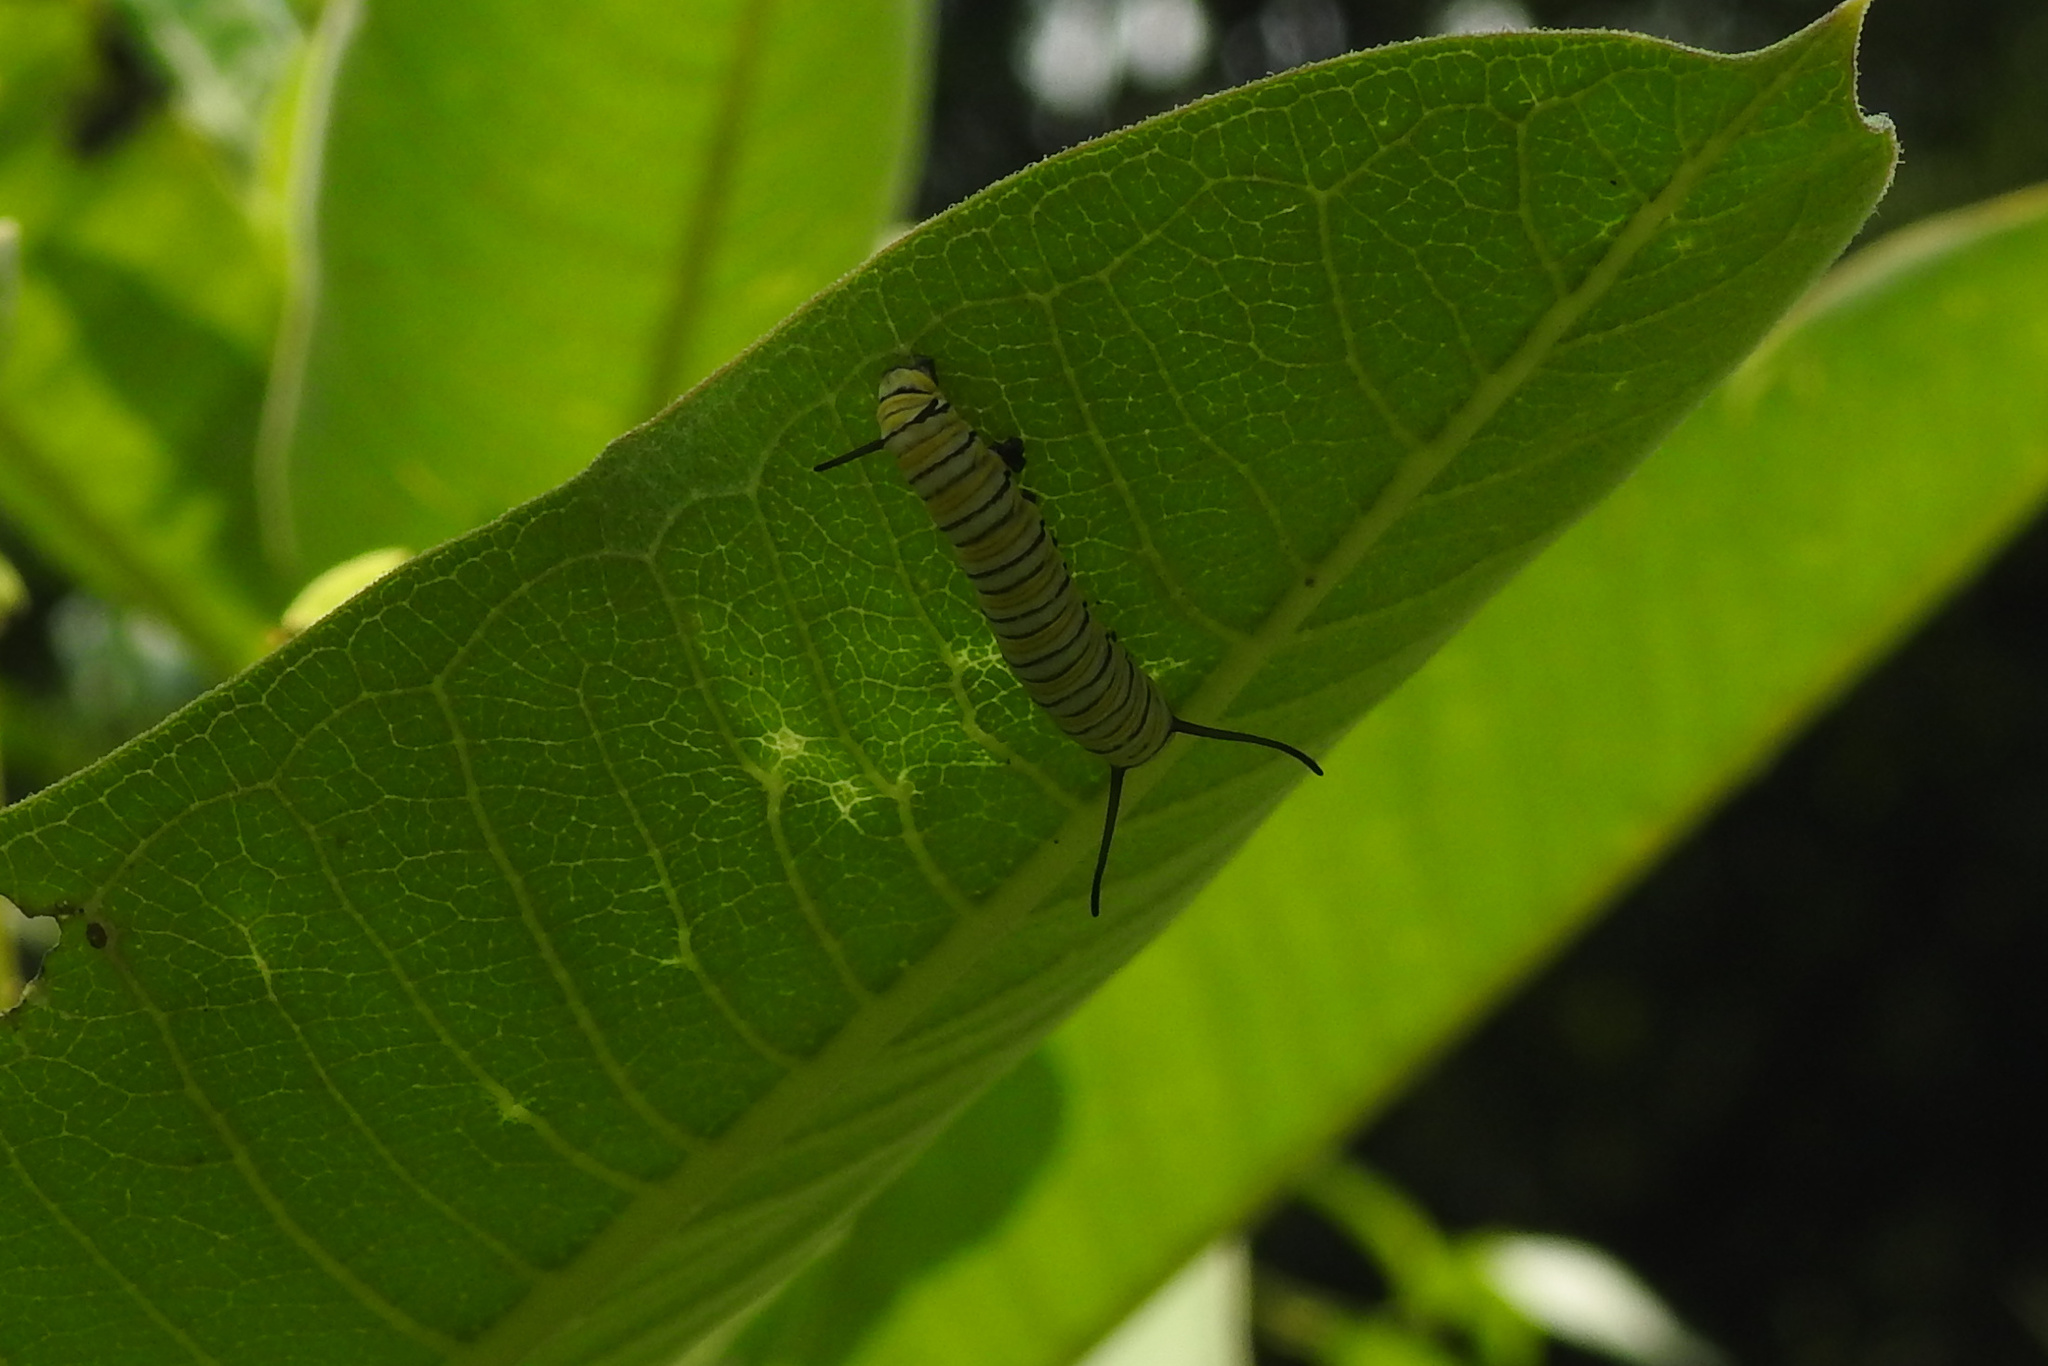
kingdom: Animalia
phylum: Arthropoda
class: Insecta
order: Lepidoptera
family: Nymphalidae
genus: Danaus
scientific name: Danaus plexippus
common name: Monarch
